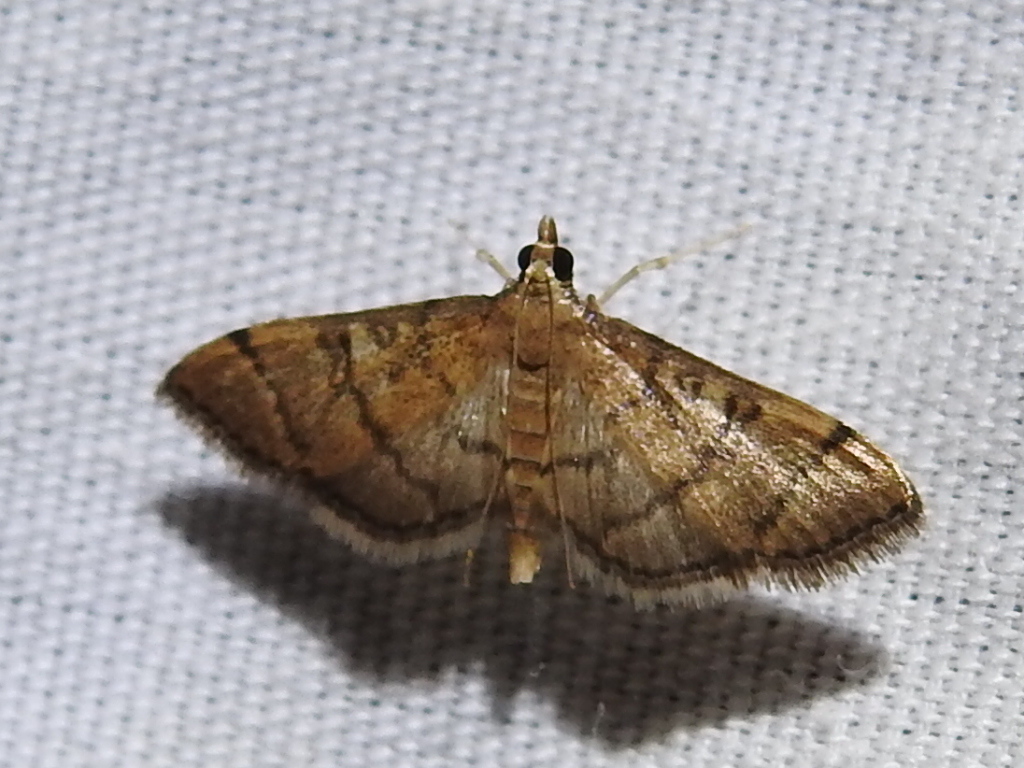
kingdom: Animalia
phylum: Arthropoda
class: Insecta
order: Lepidoptera
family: Crambidae
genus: Lamprosema
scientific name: Lamprosema Blepharomastix ranalis
